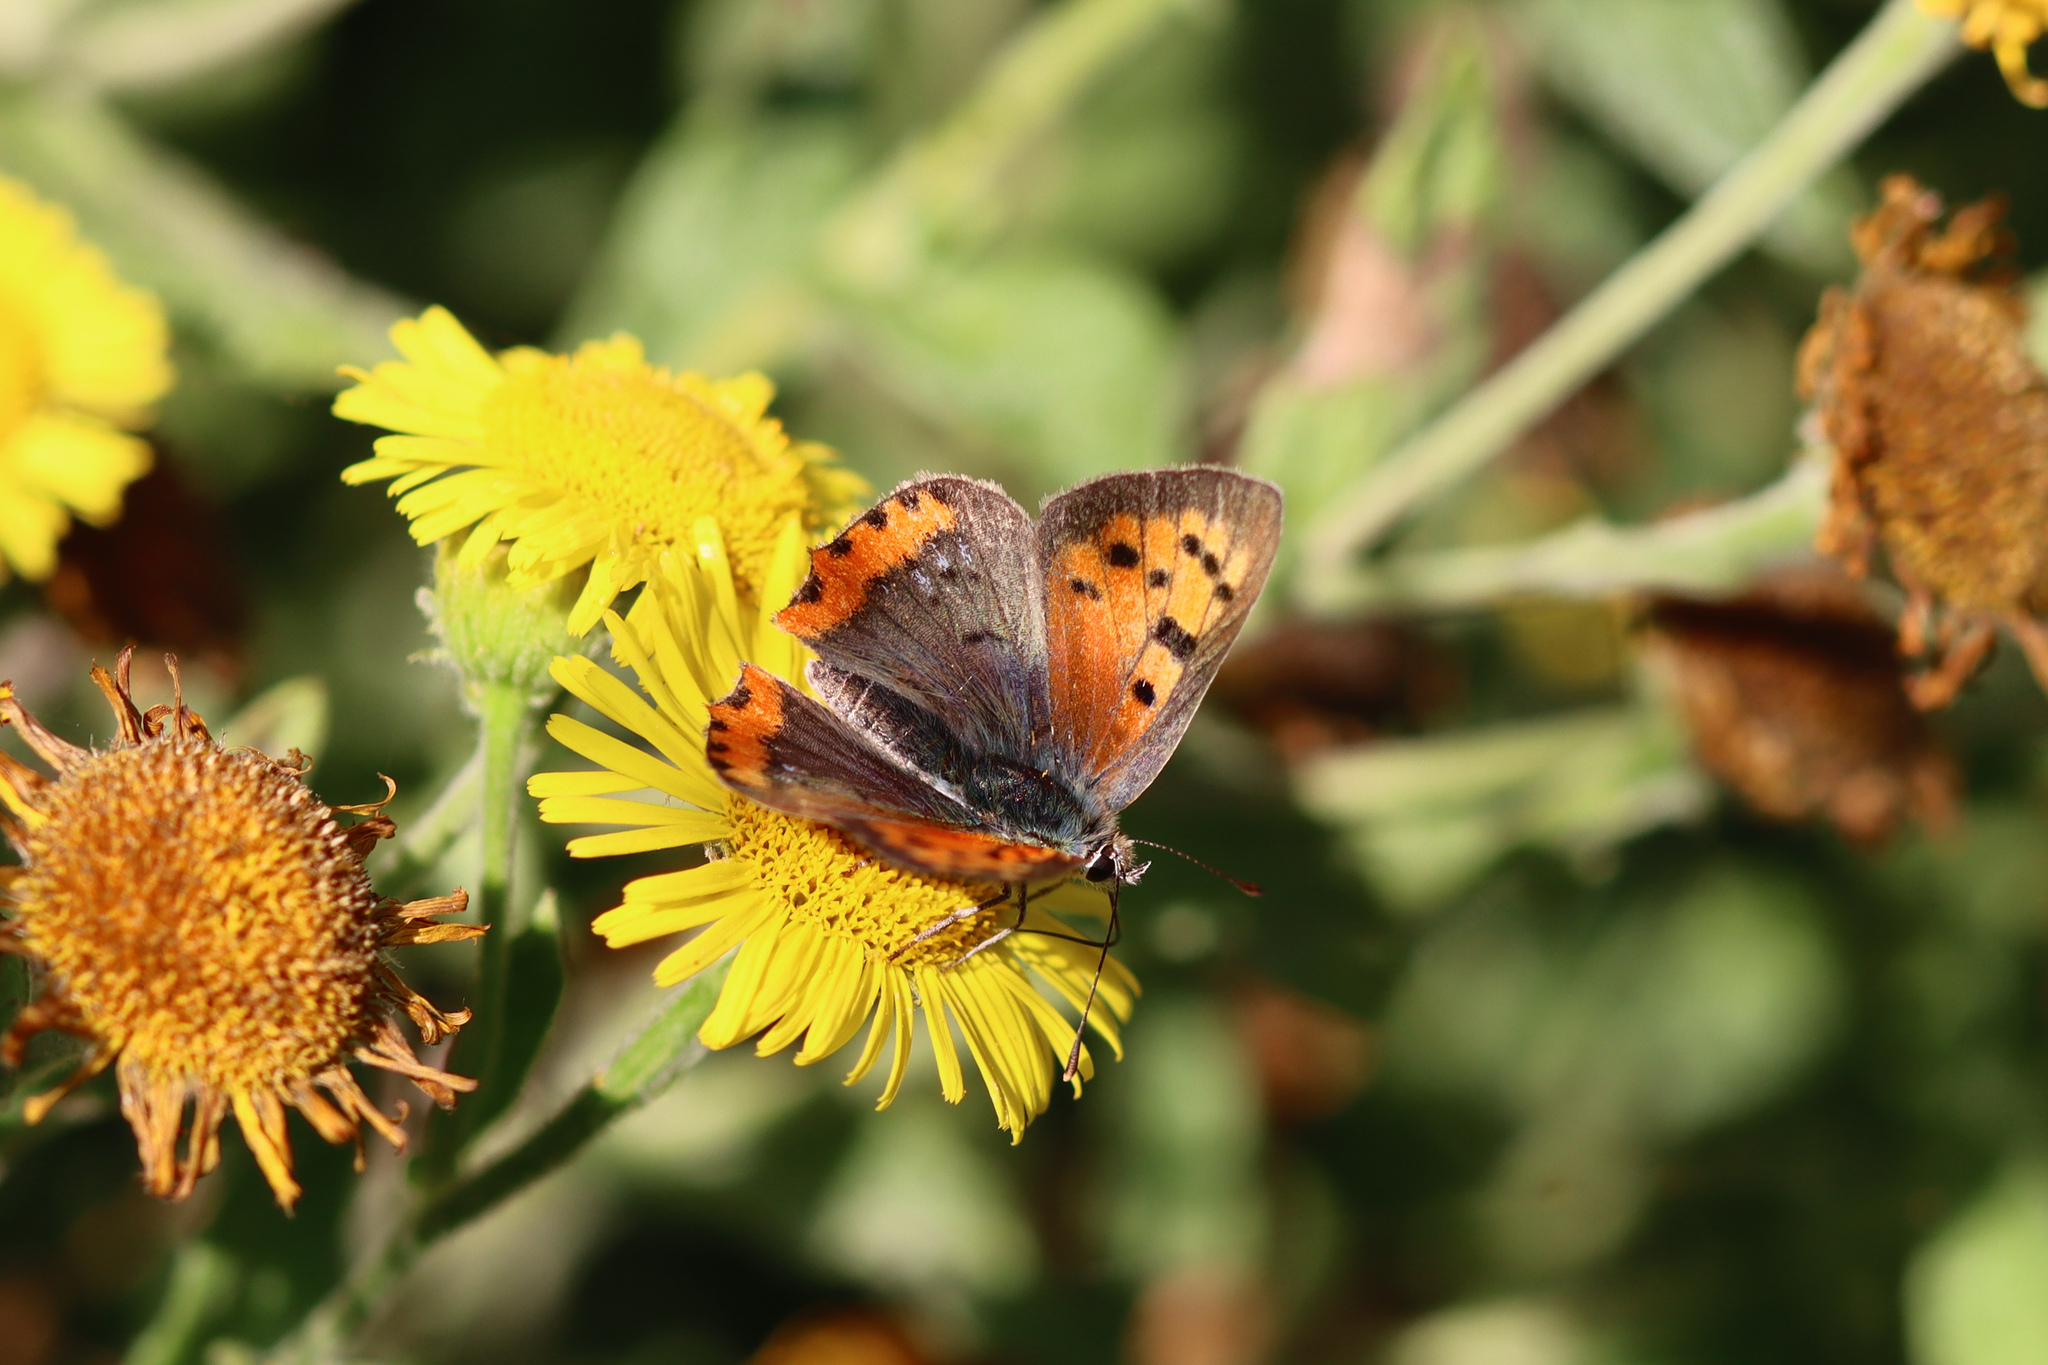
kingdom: Animalia
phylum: Arthropoda
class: Insecta
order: Lepidoptera
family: Lycaenidae
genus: Lycaena
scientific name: Lycaena phlaeas
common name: Small copper
